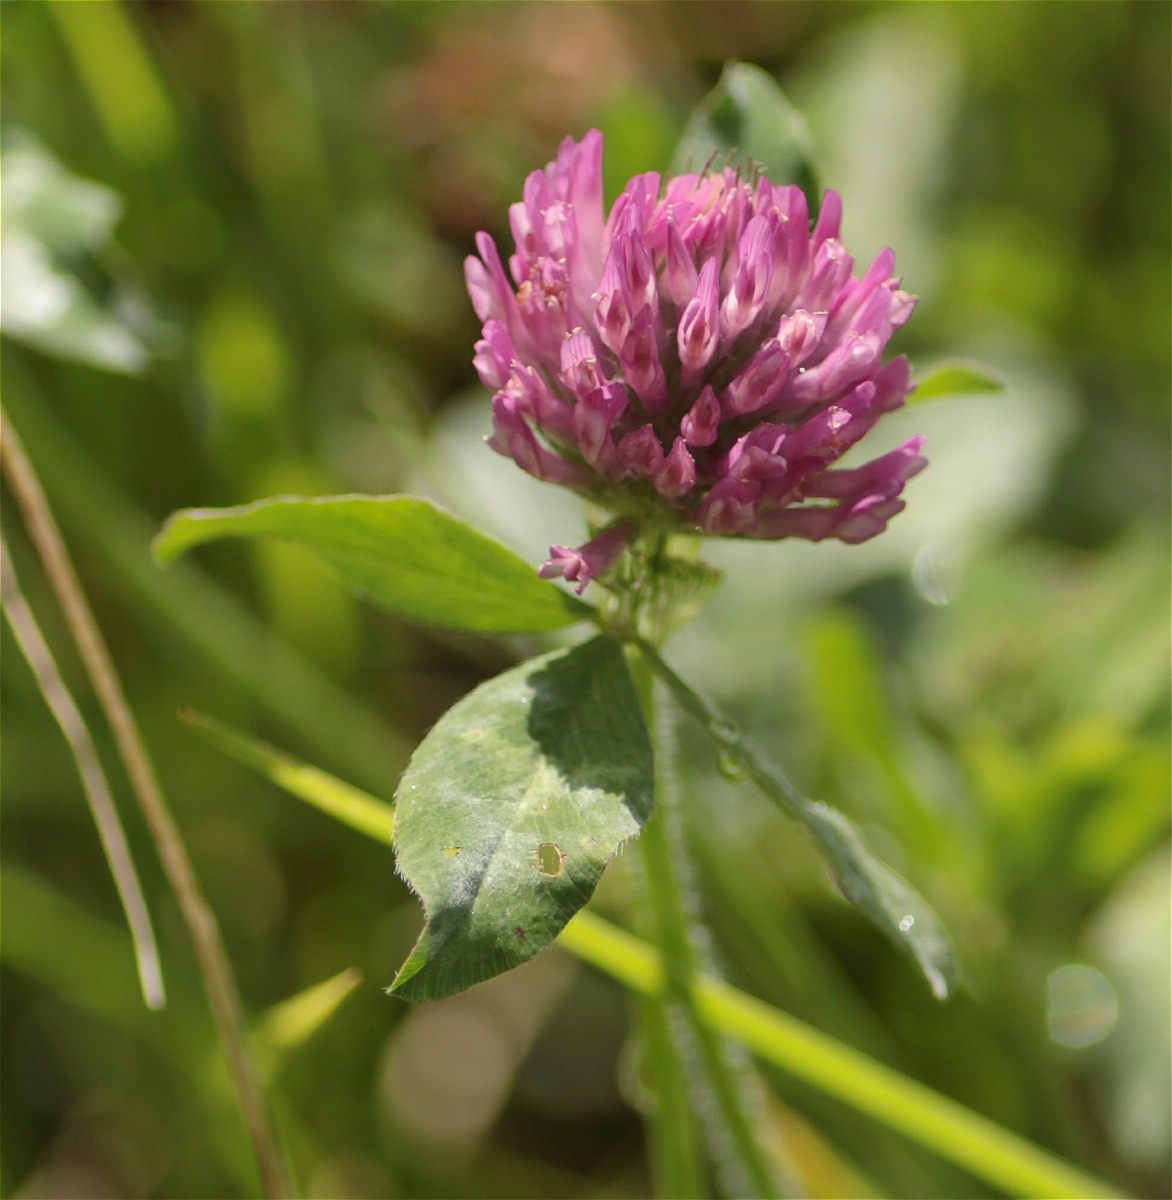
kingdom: Plantae
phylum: Tracheophyta
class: Magnoliopsida
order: Fabales
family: Fabaceae
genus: Trifolium
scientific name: Trifolium pratense
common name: Red clover
